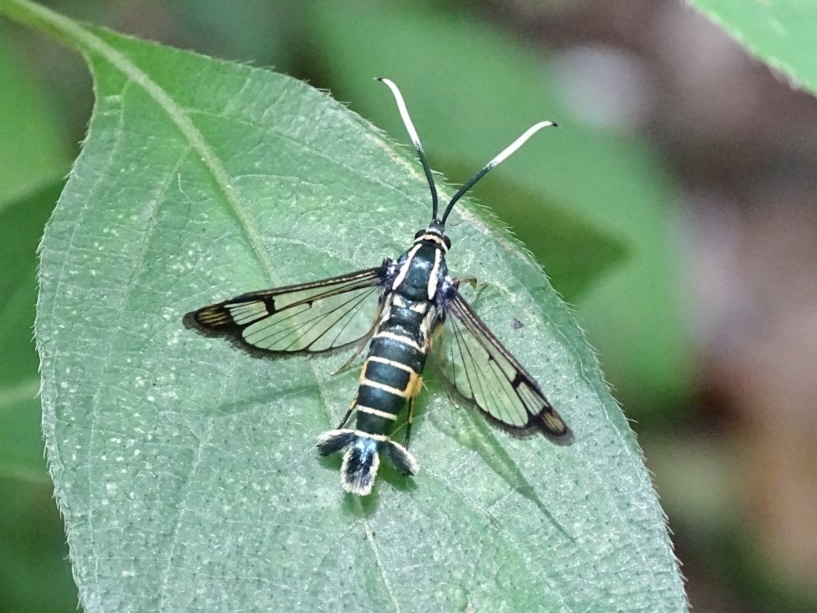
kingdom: Animalia
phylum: Arthropoda
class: Insecta
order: Lepidoptera
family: Sesiidae
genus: Ichneumonella
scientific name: Ichneumonella viridiflava
